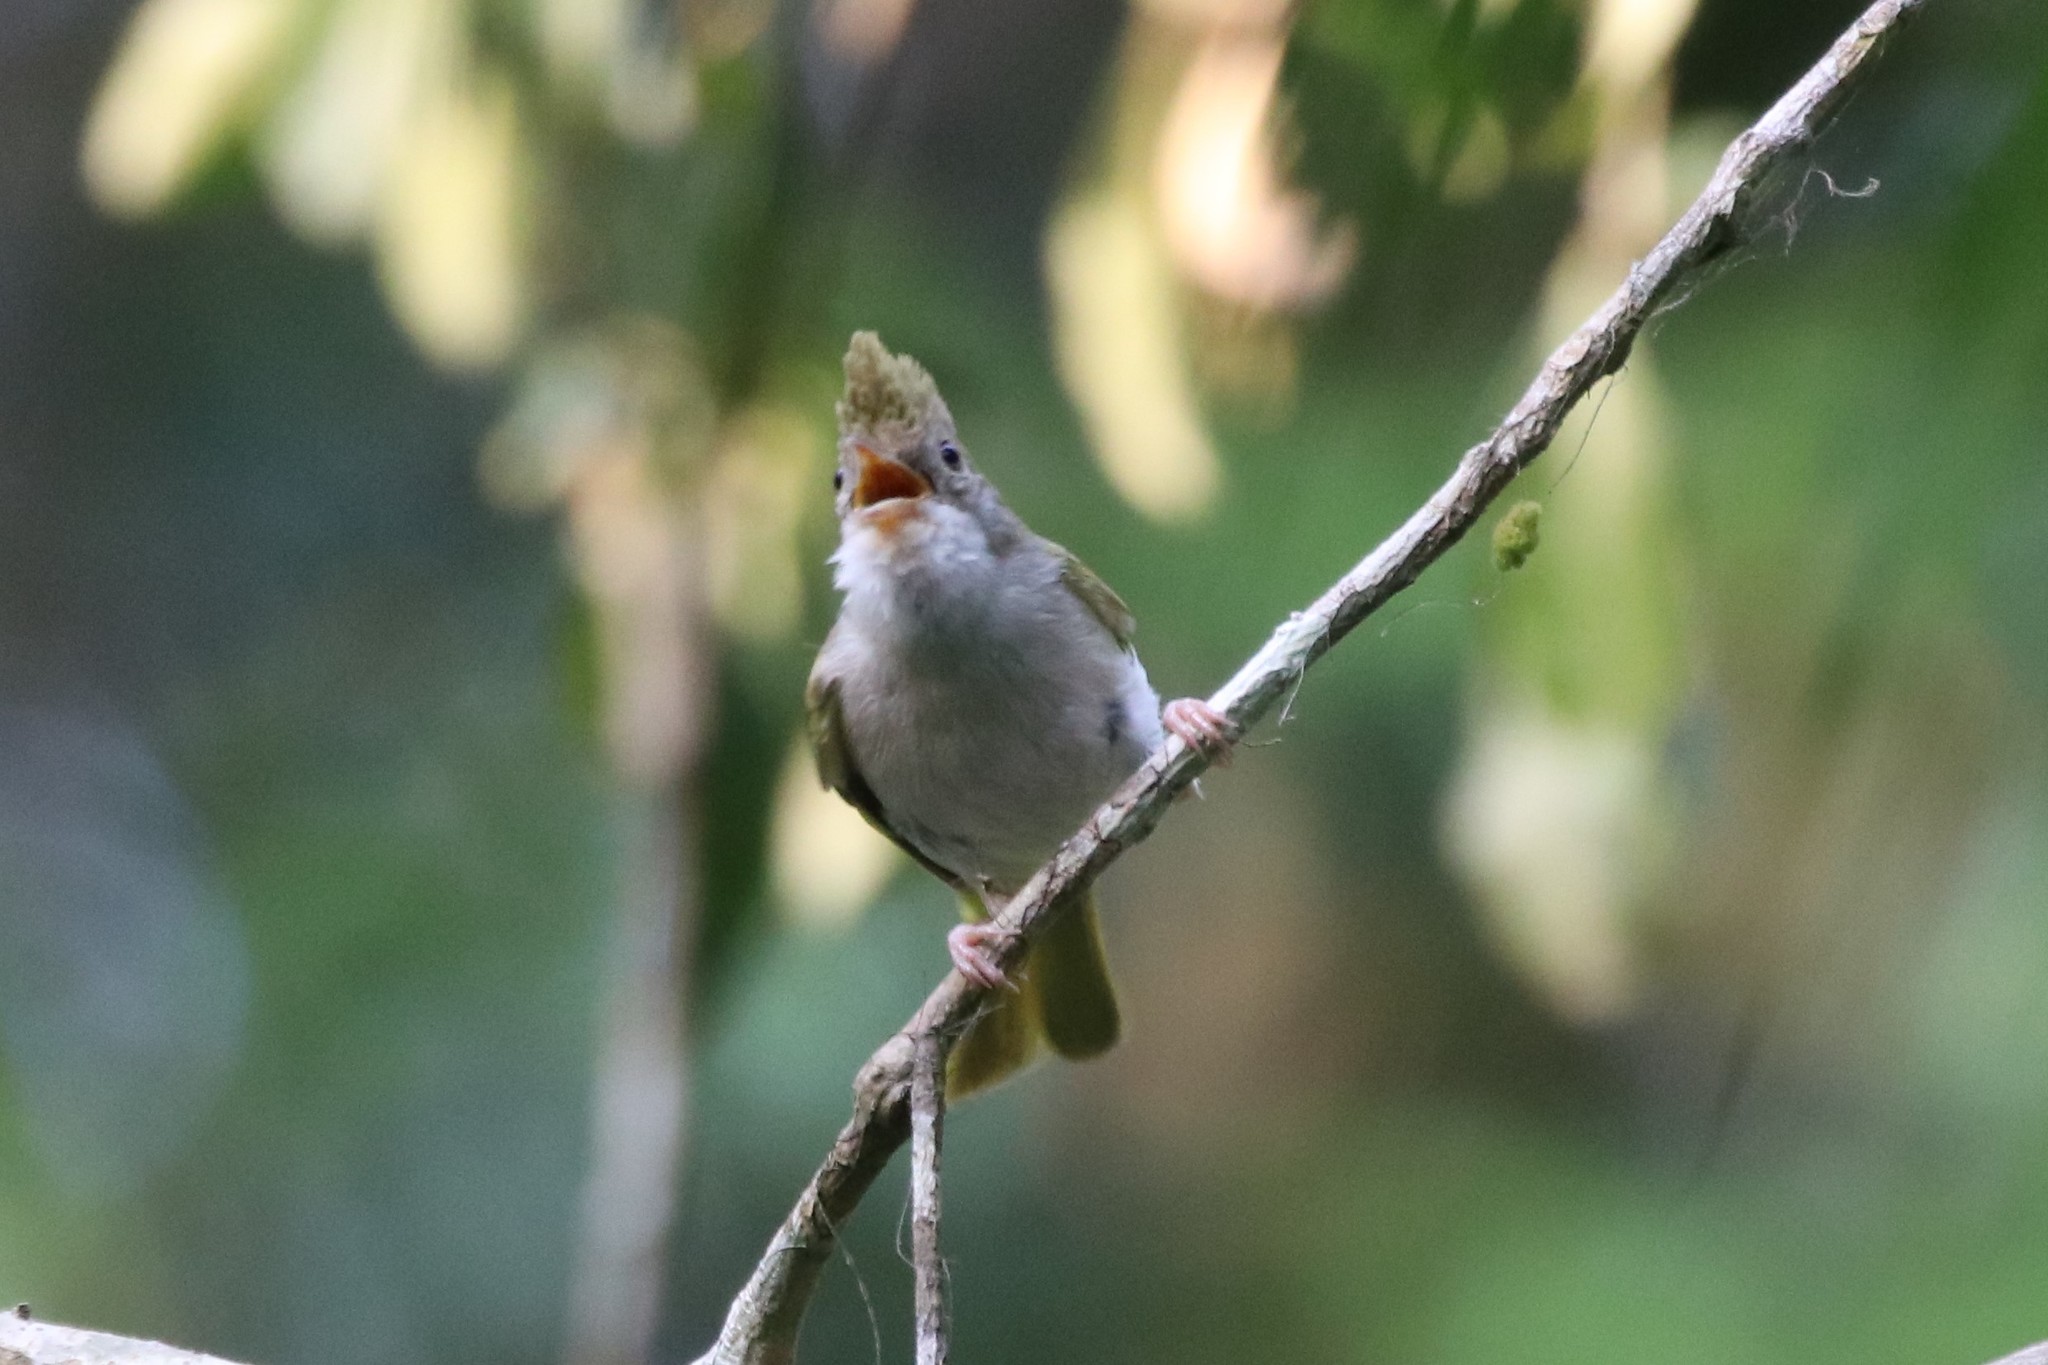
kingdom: Animalia
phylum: Chordata
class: Aves
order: Passeriformes
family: Vireonidae
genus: Erpornis
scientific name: Erpornis zantholeuca
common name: White-bellied erpornis
